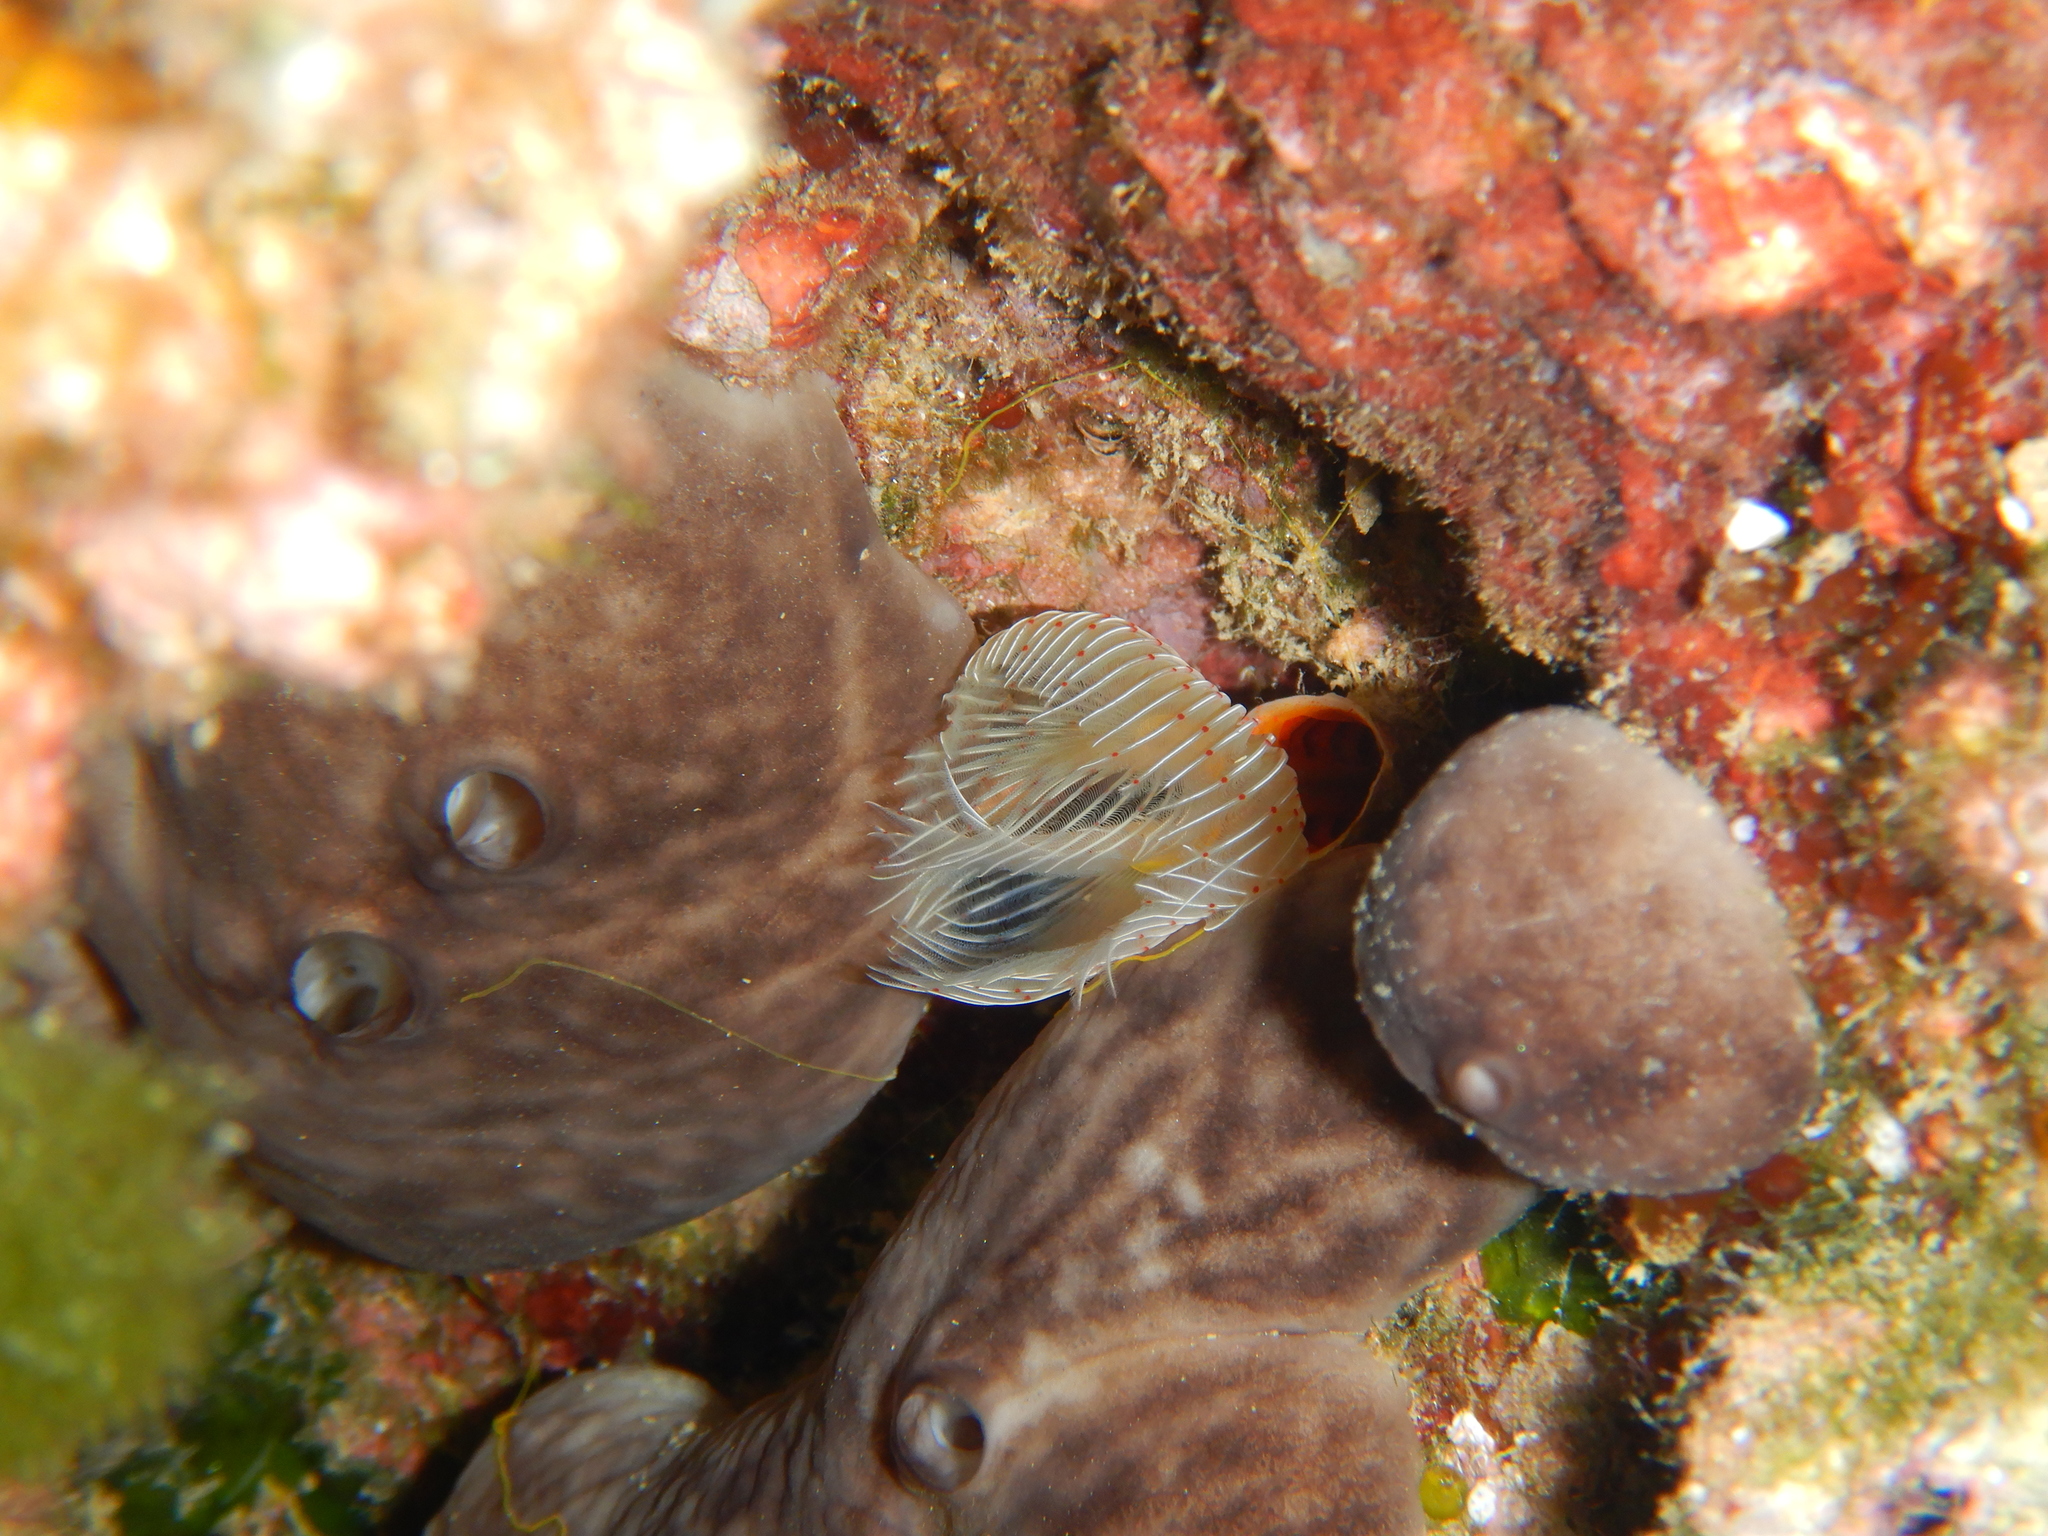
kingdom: Animalia
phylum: Annelida
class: Polychaeta
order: Sabellida
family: Serpulidae
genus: Protula
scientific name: Protula tubularia
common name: Red-spotted horseshoe
